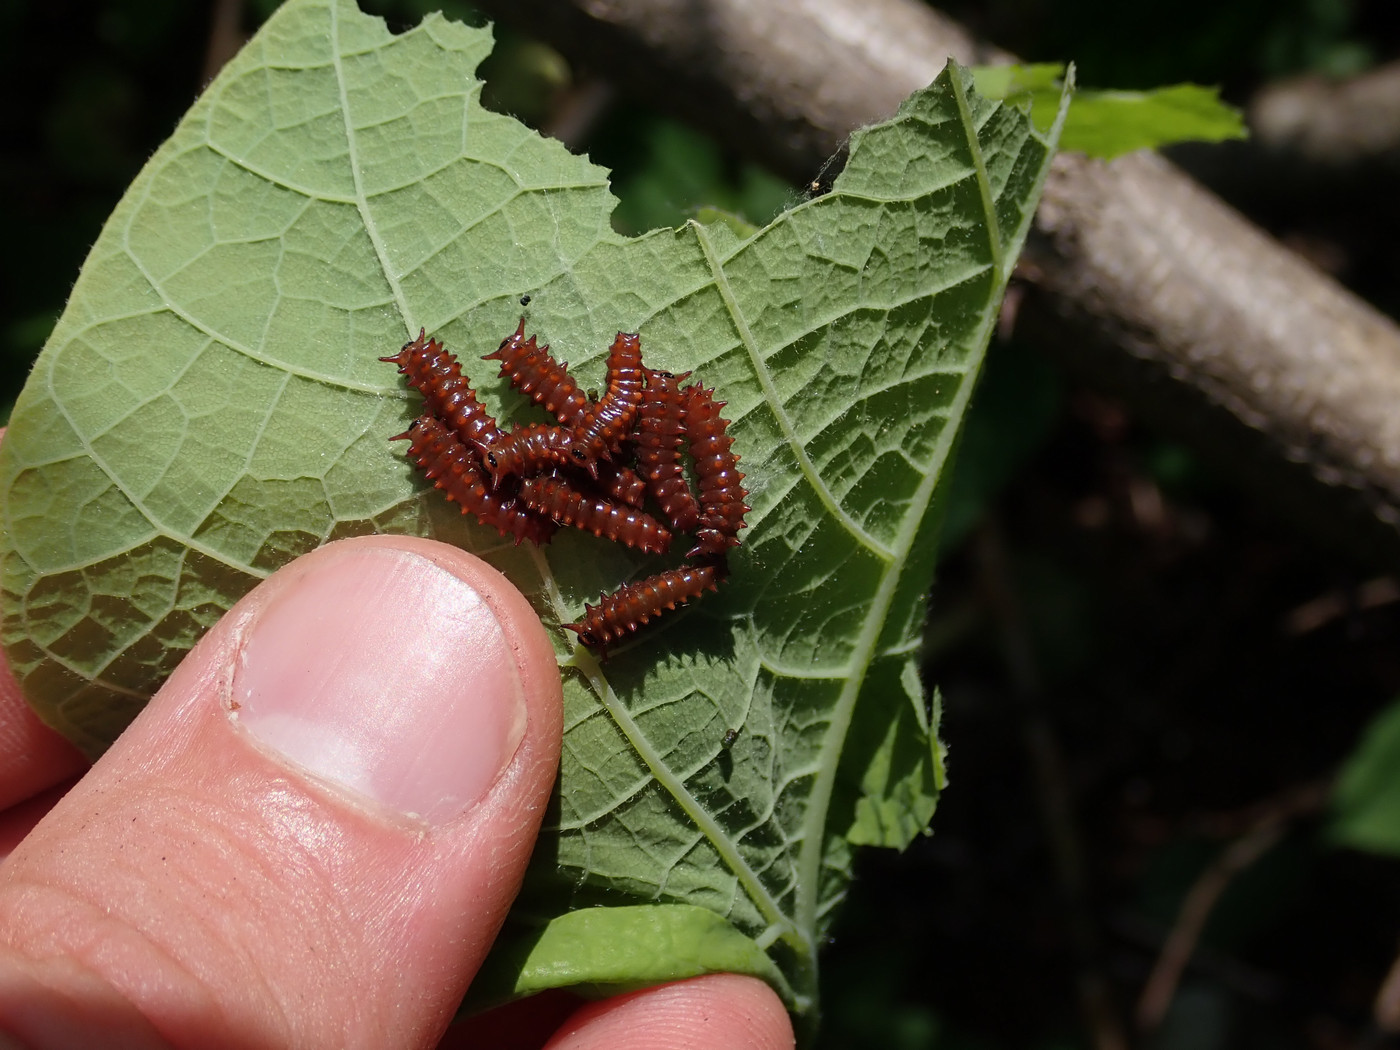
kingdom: Animalia
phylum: Arthropoda
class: Insecta
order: Lepidoptera
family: Papilionidae
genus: Battus
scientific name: Battus philenor
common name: Pipevine swallowtail
